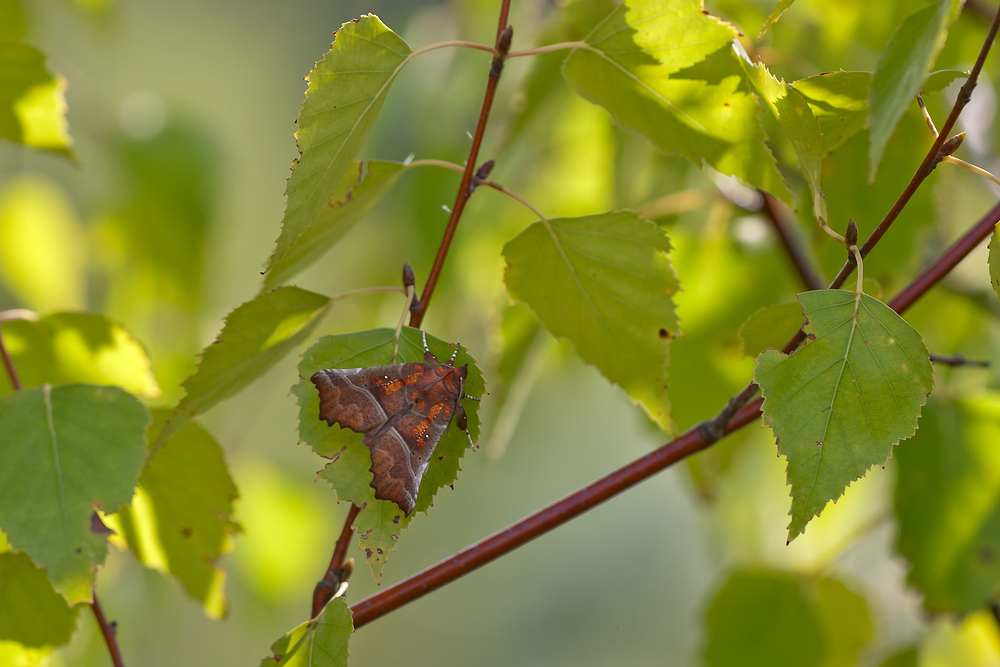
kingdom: Animalia
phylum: Arthropoda
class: Insecta
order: Lepidoptera
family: Erebidae
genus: Scoliopteryx
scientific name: Scoliopteryx libatrix
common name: Herald
